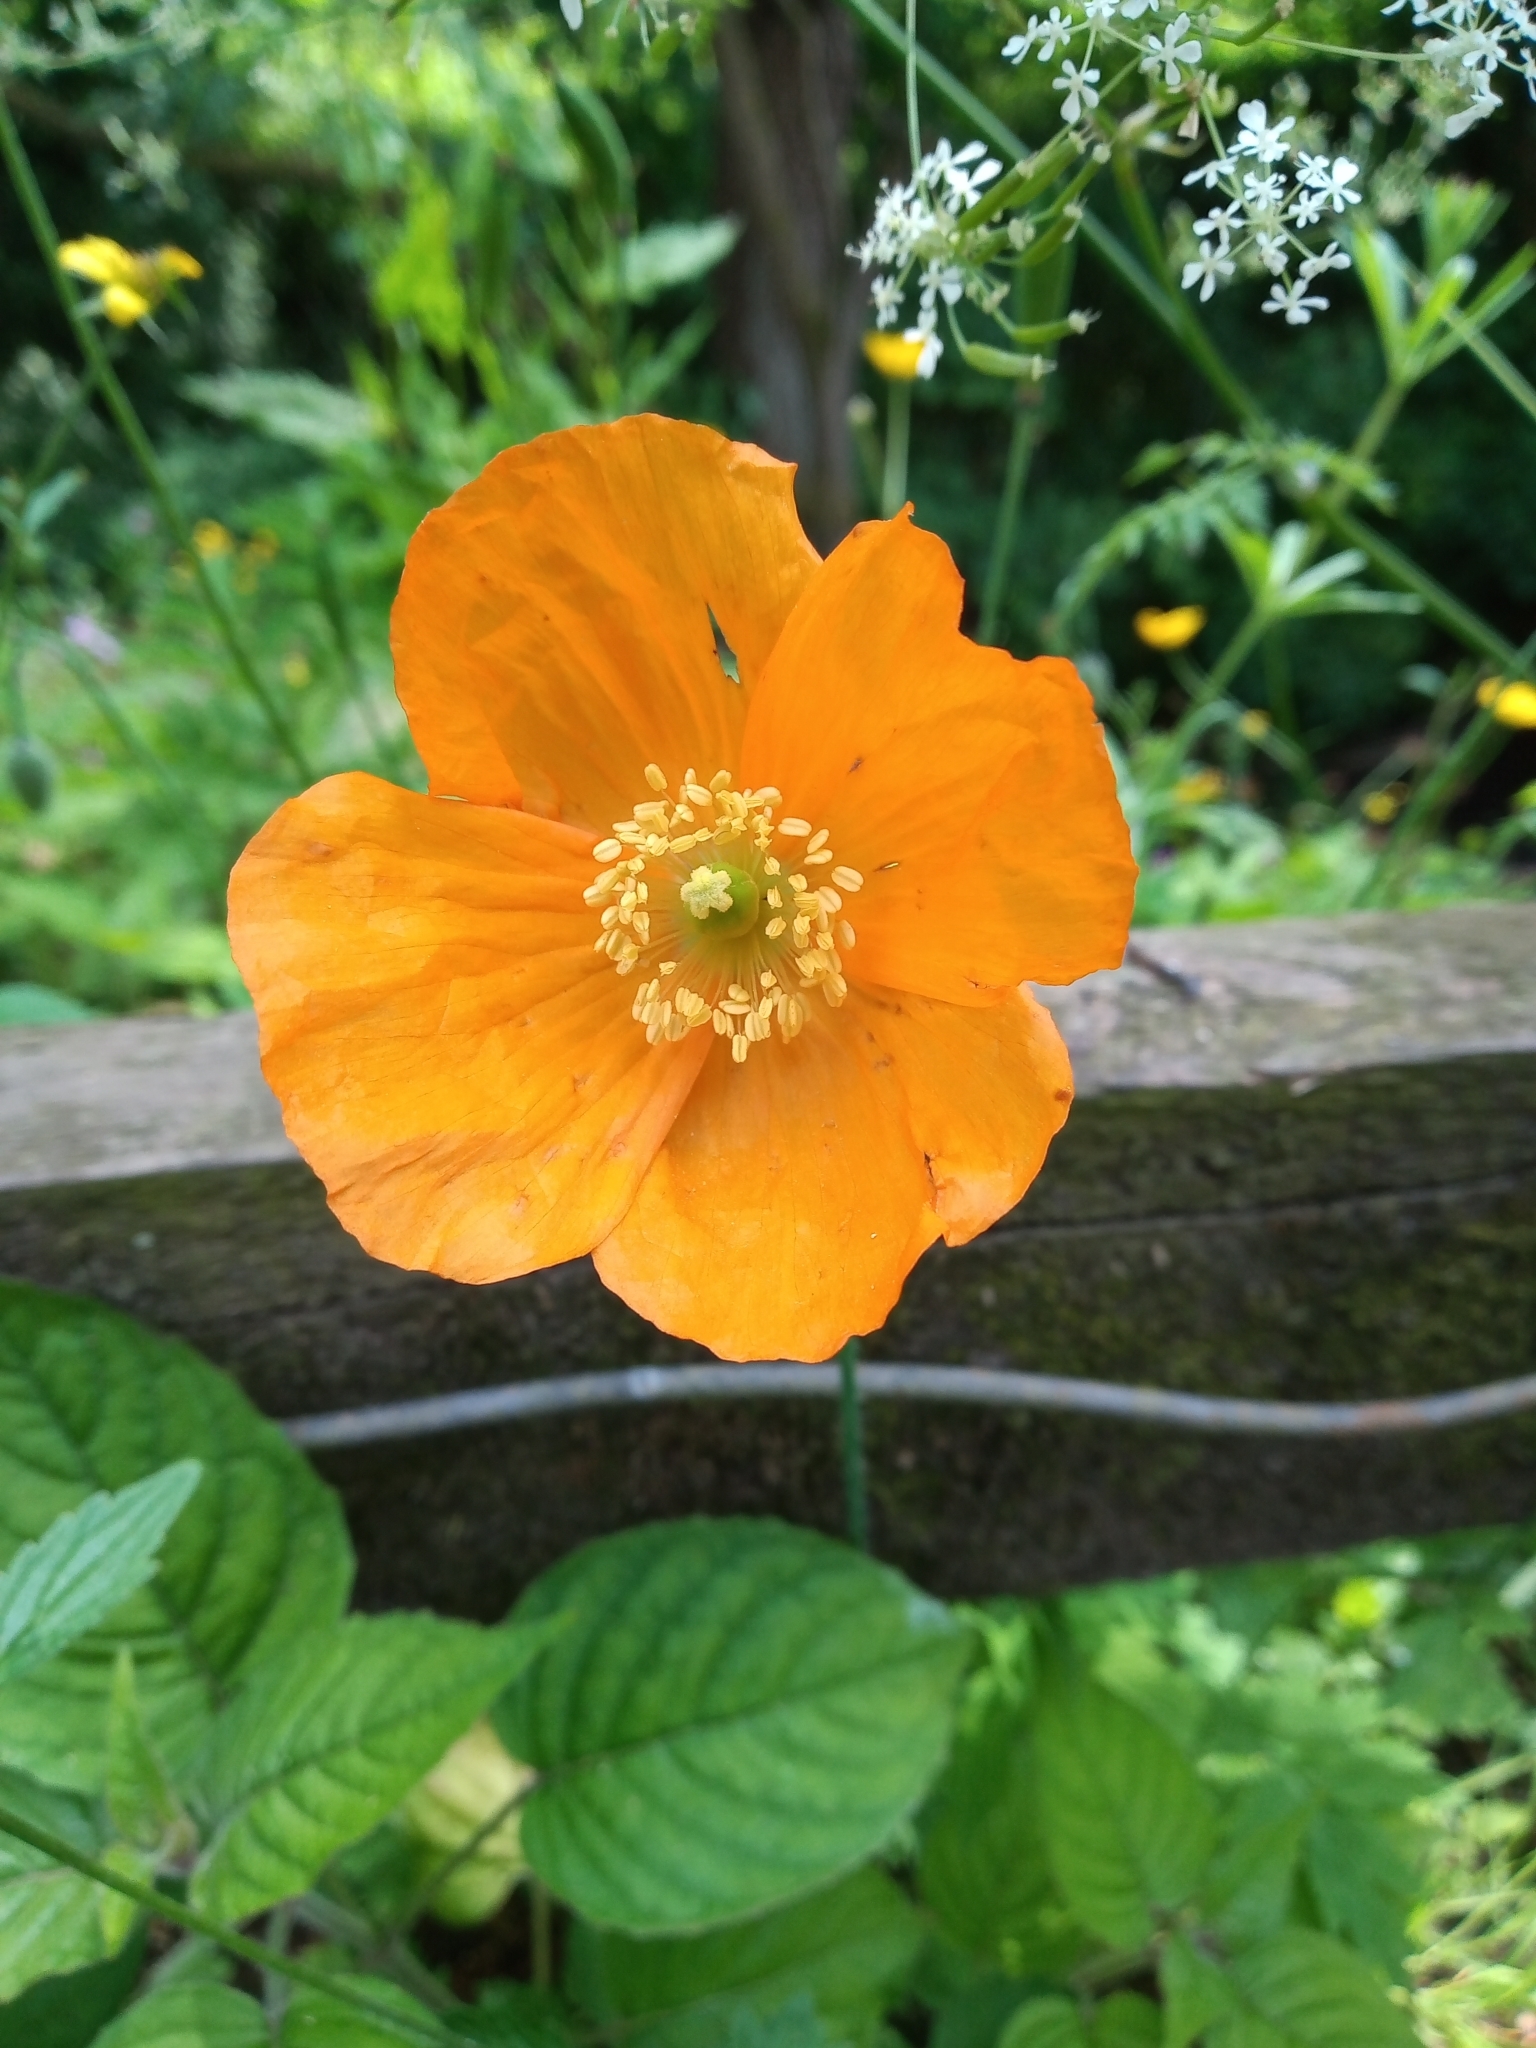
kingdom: Plantae
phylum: Tracheophyta
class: Magnoliopsida
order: Ranunculales
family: Papaveraceae
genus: Papaver
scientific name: Papaver cambricum
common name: Poppy
